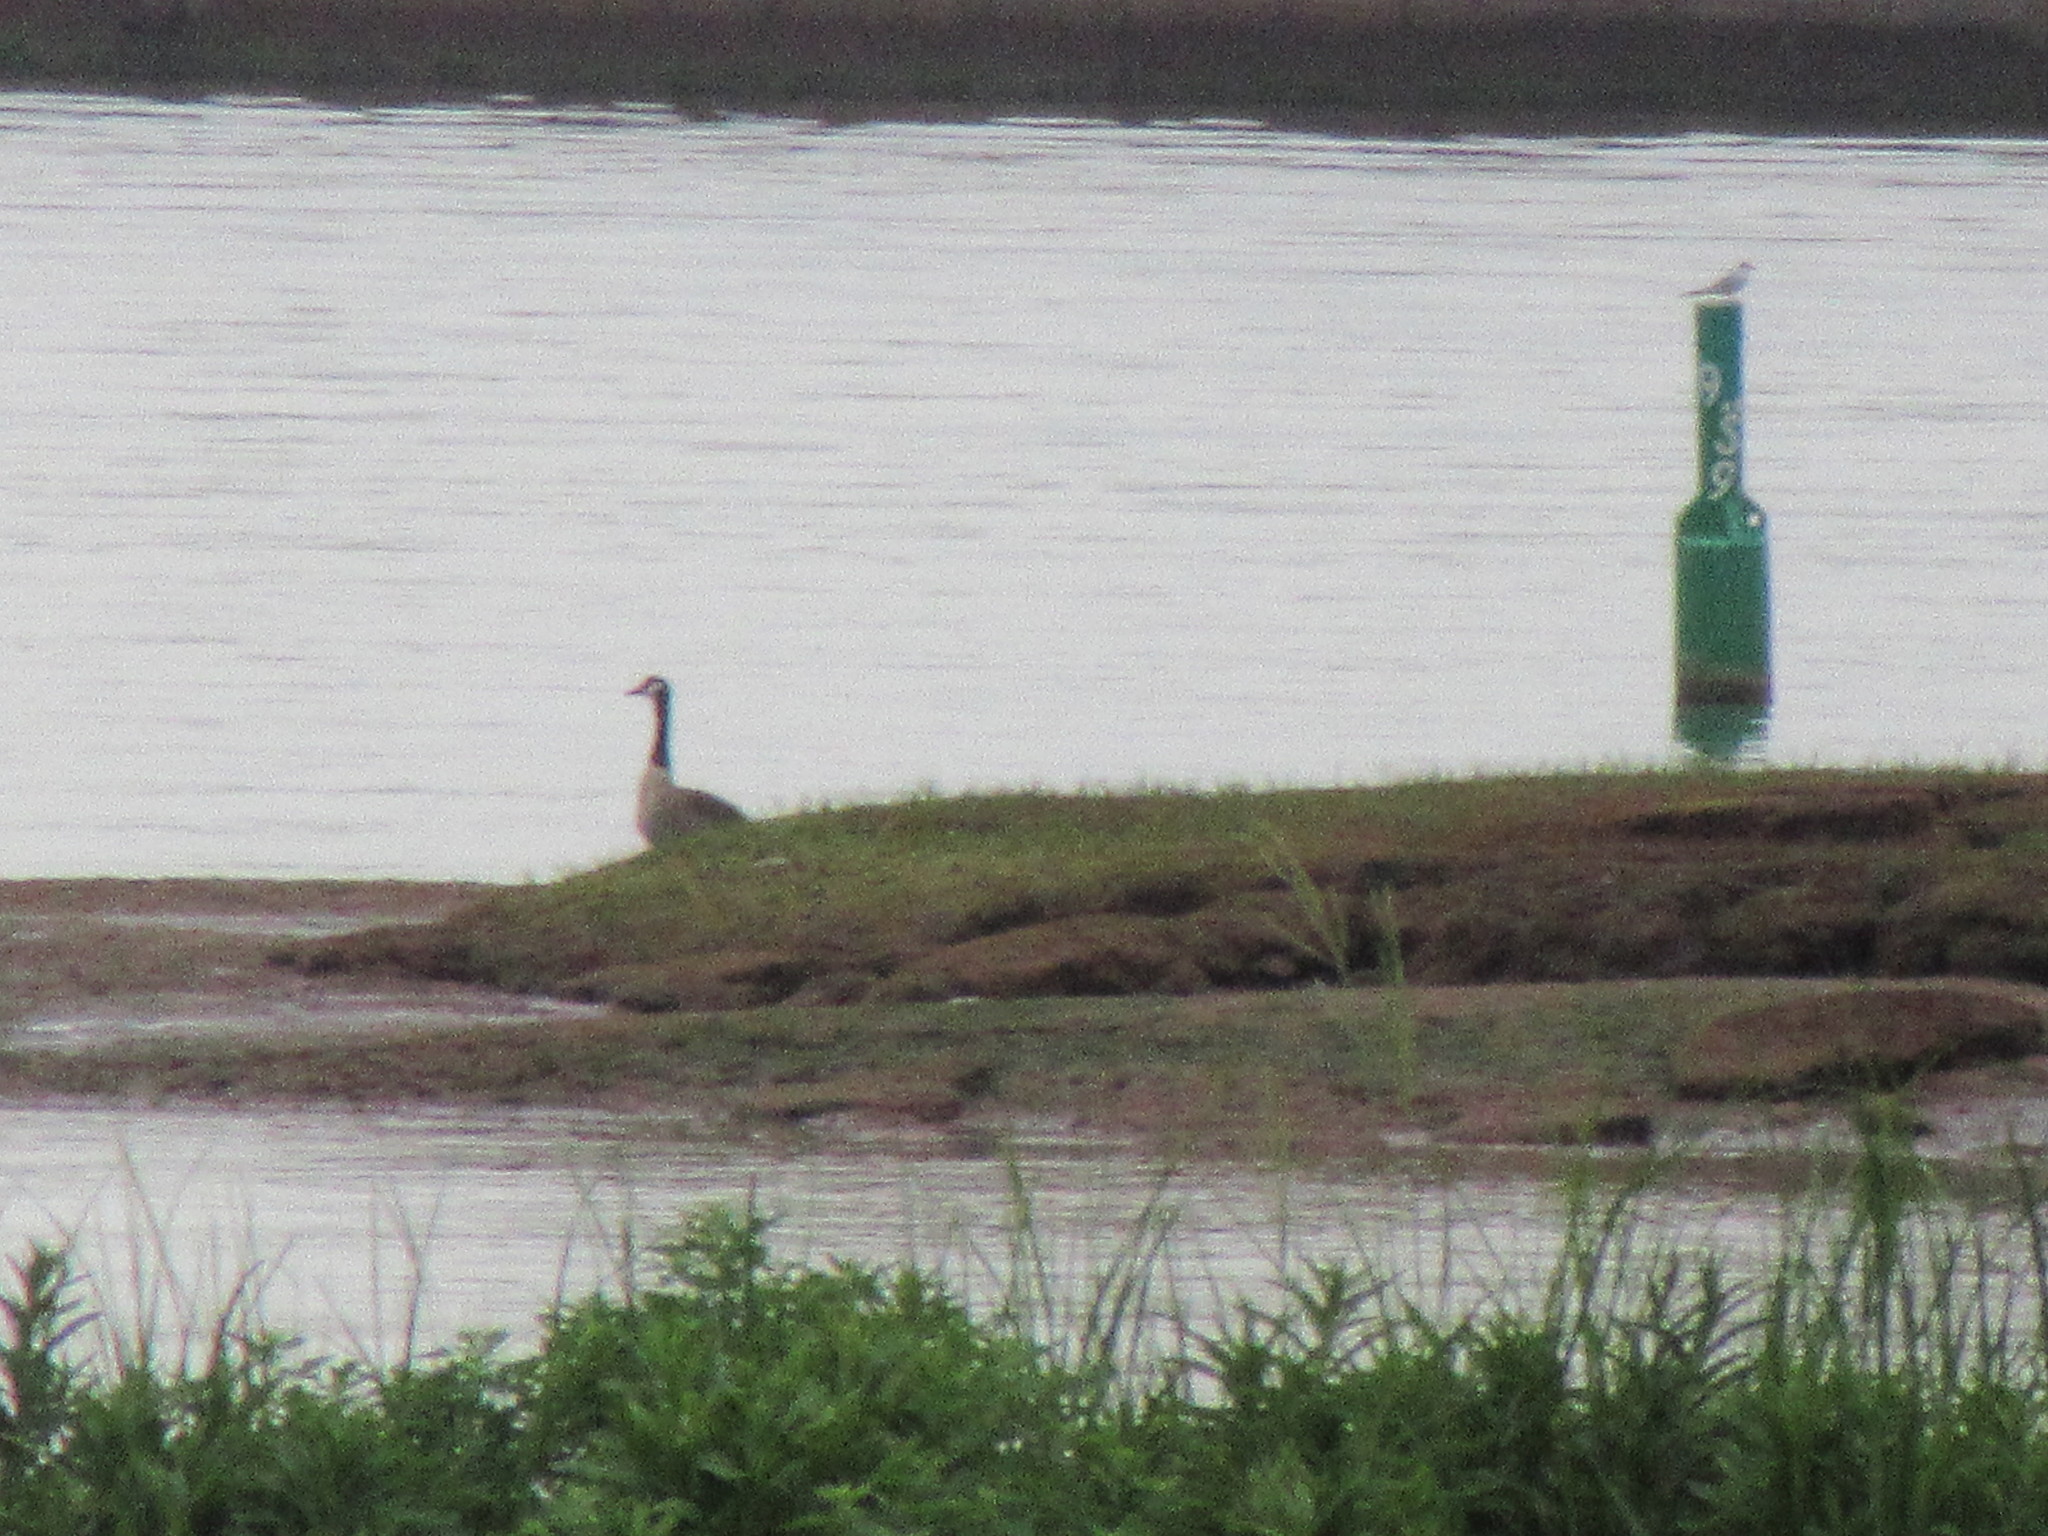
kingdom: Animalia
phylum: Chordata
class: Aves
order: Anseriformes
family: Anatidae
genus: Branta
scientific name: Branta canadensis
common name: Canada goose
